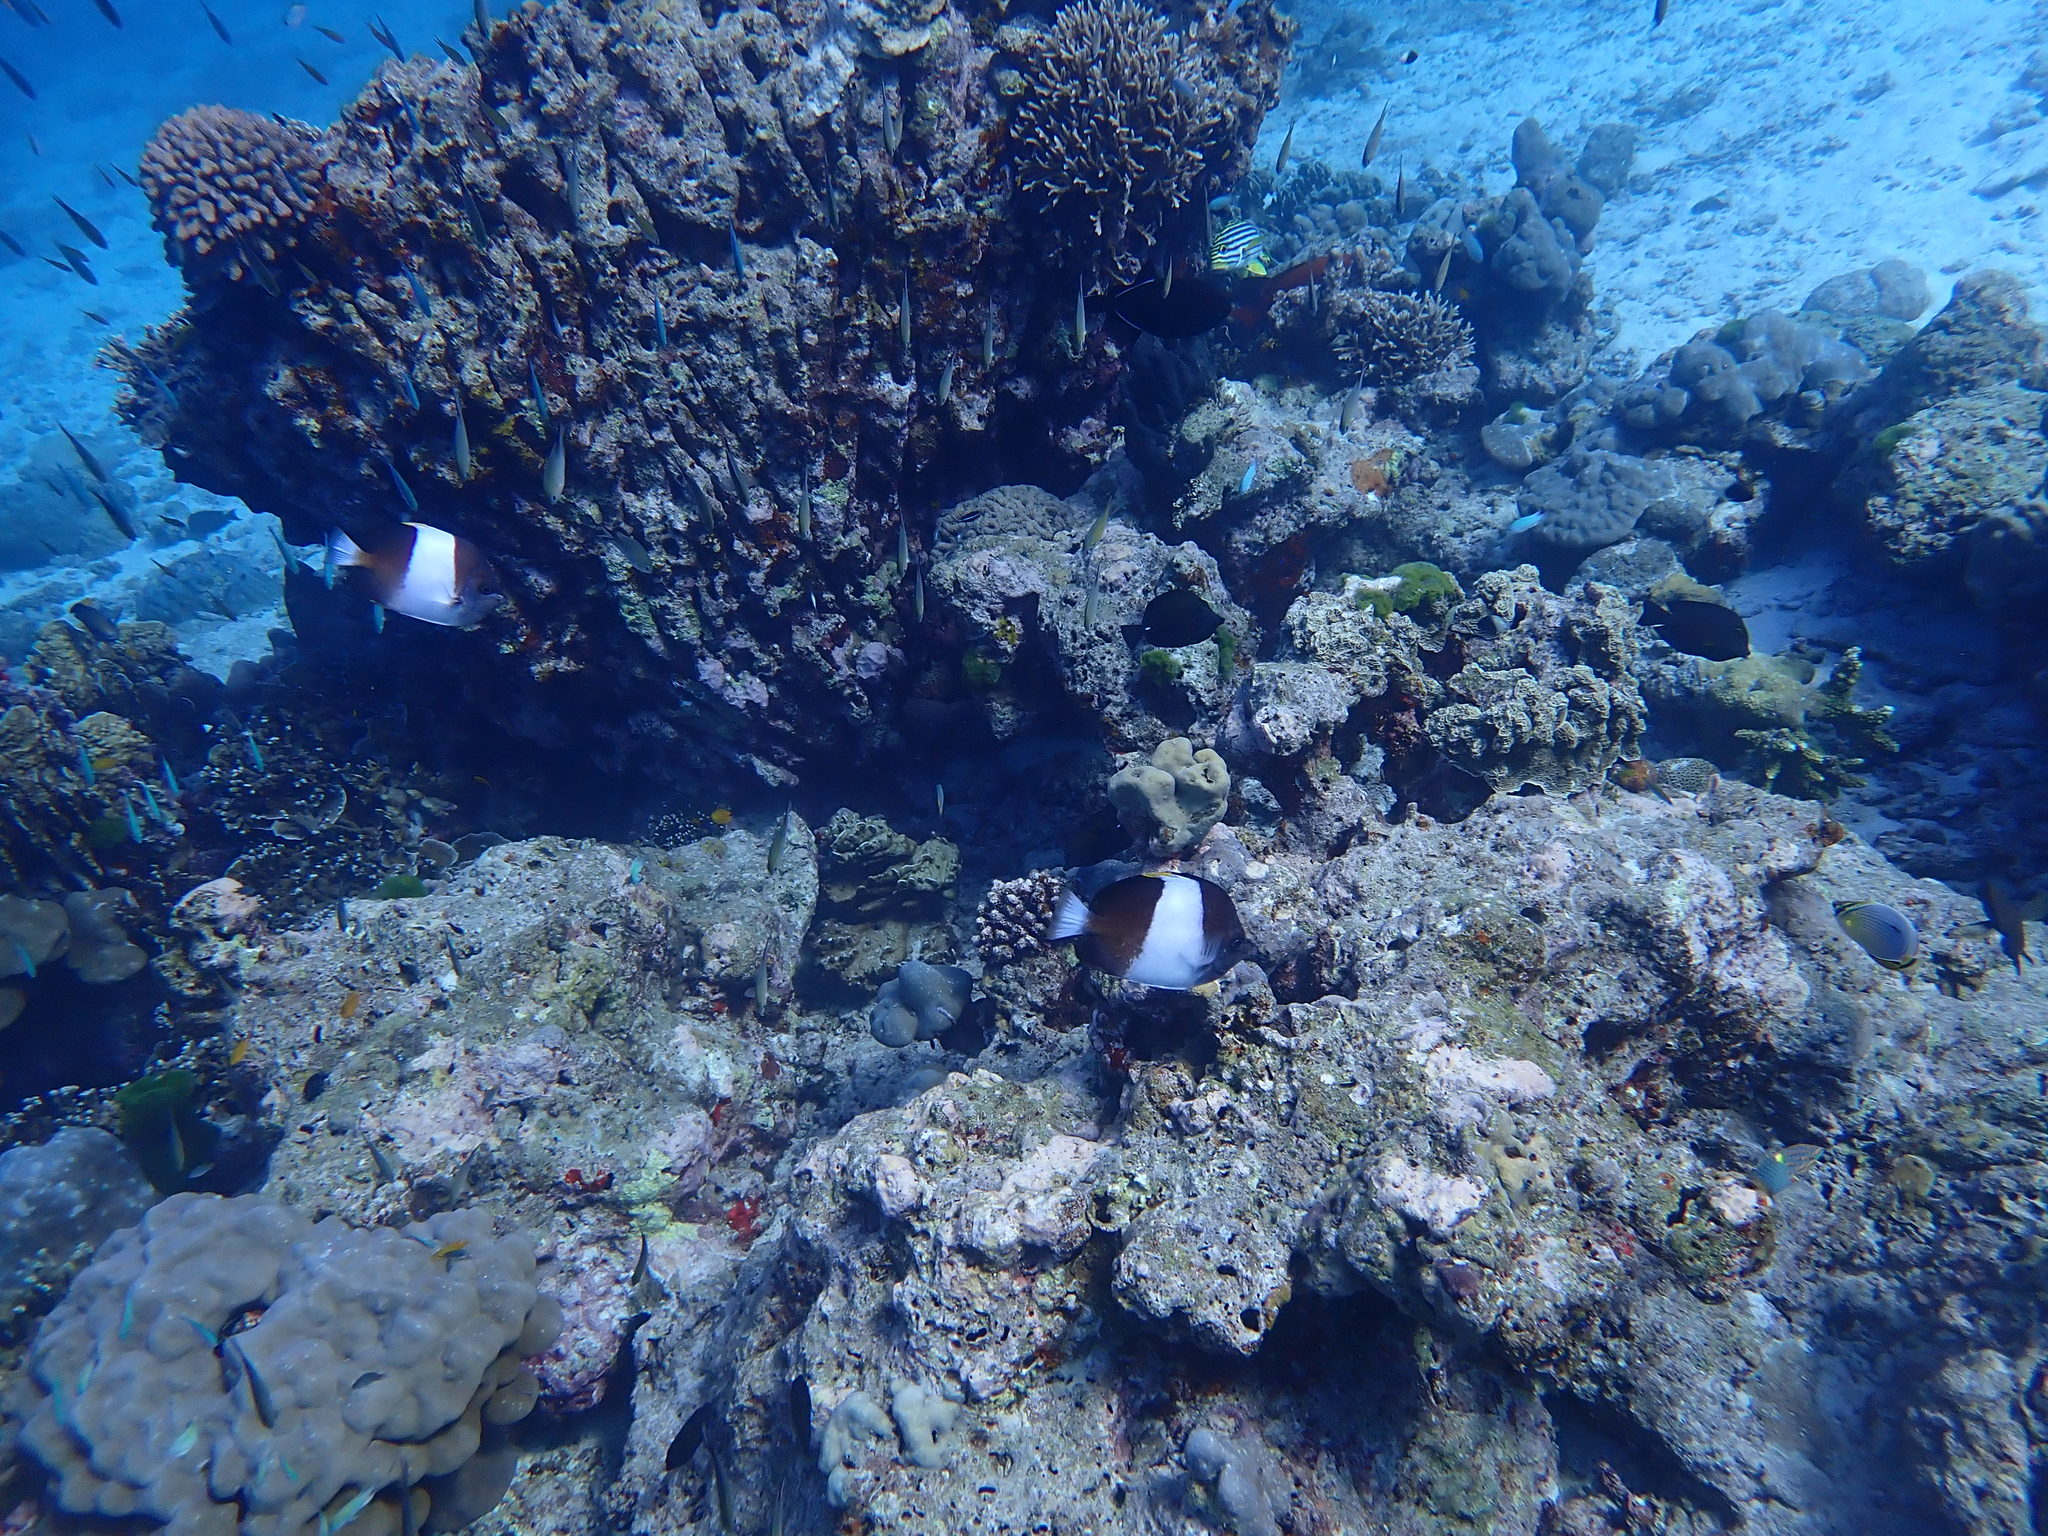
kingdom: Animalia
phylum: Chordata
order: Perciformes
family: Chaetodontidae
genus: Hemitaurichthys
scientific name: Hemitaurichthys zoster
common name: Brown-and-white butterflyfish
